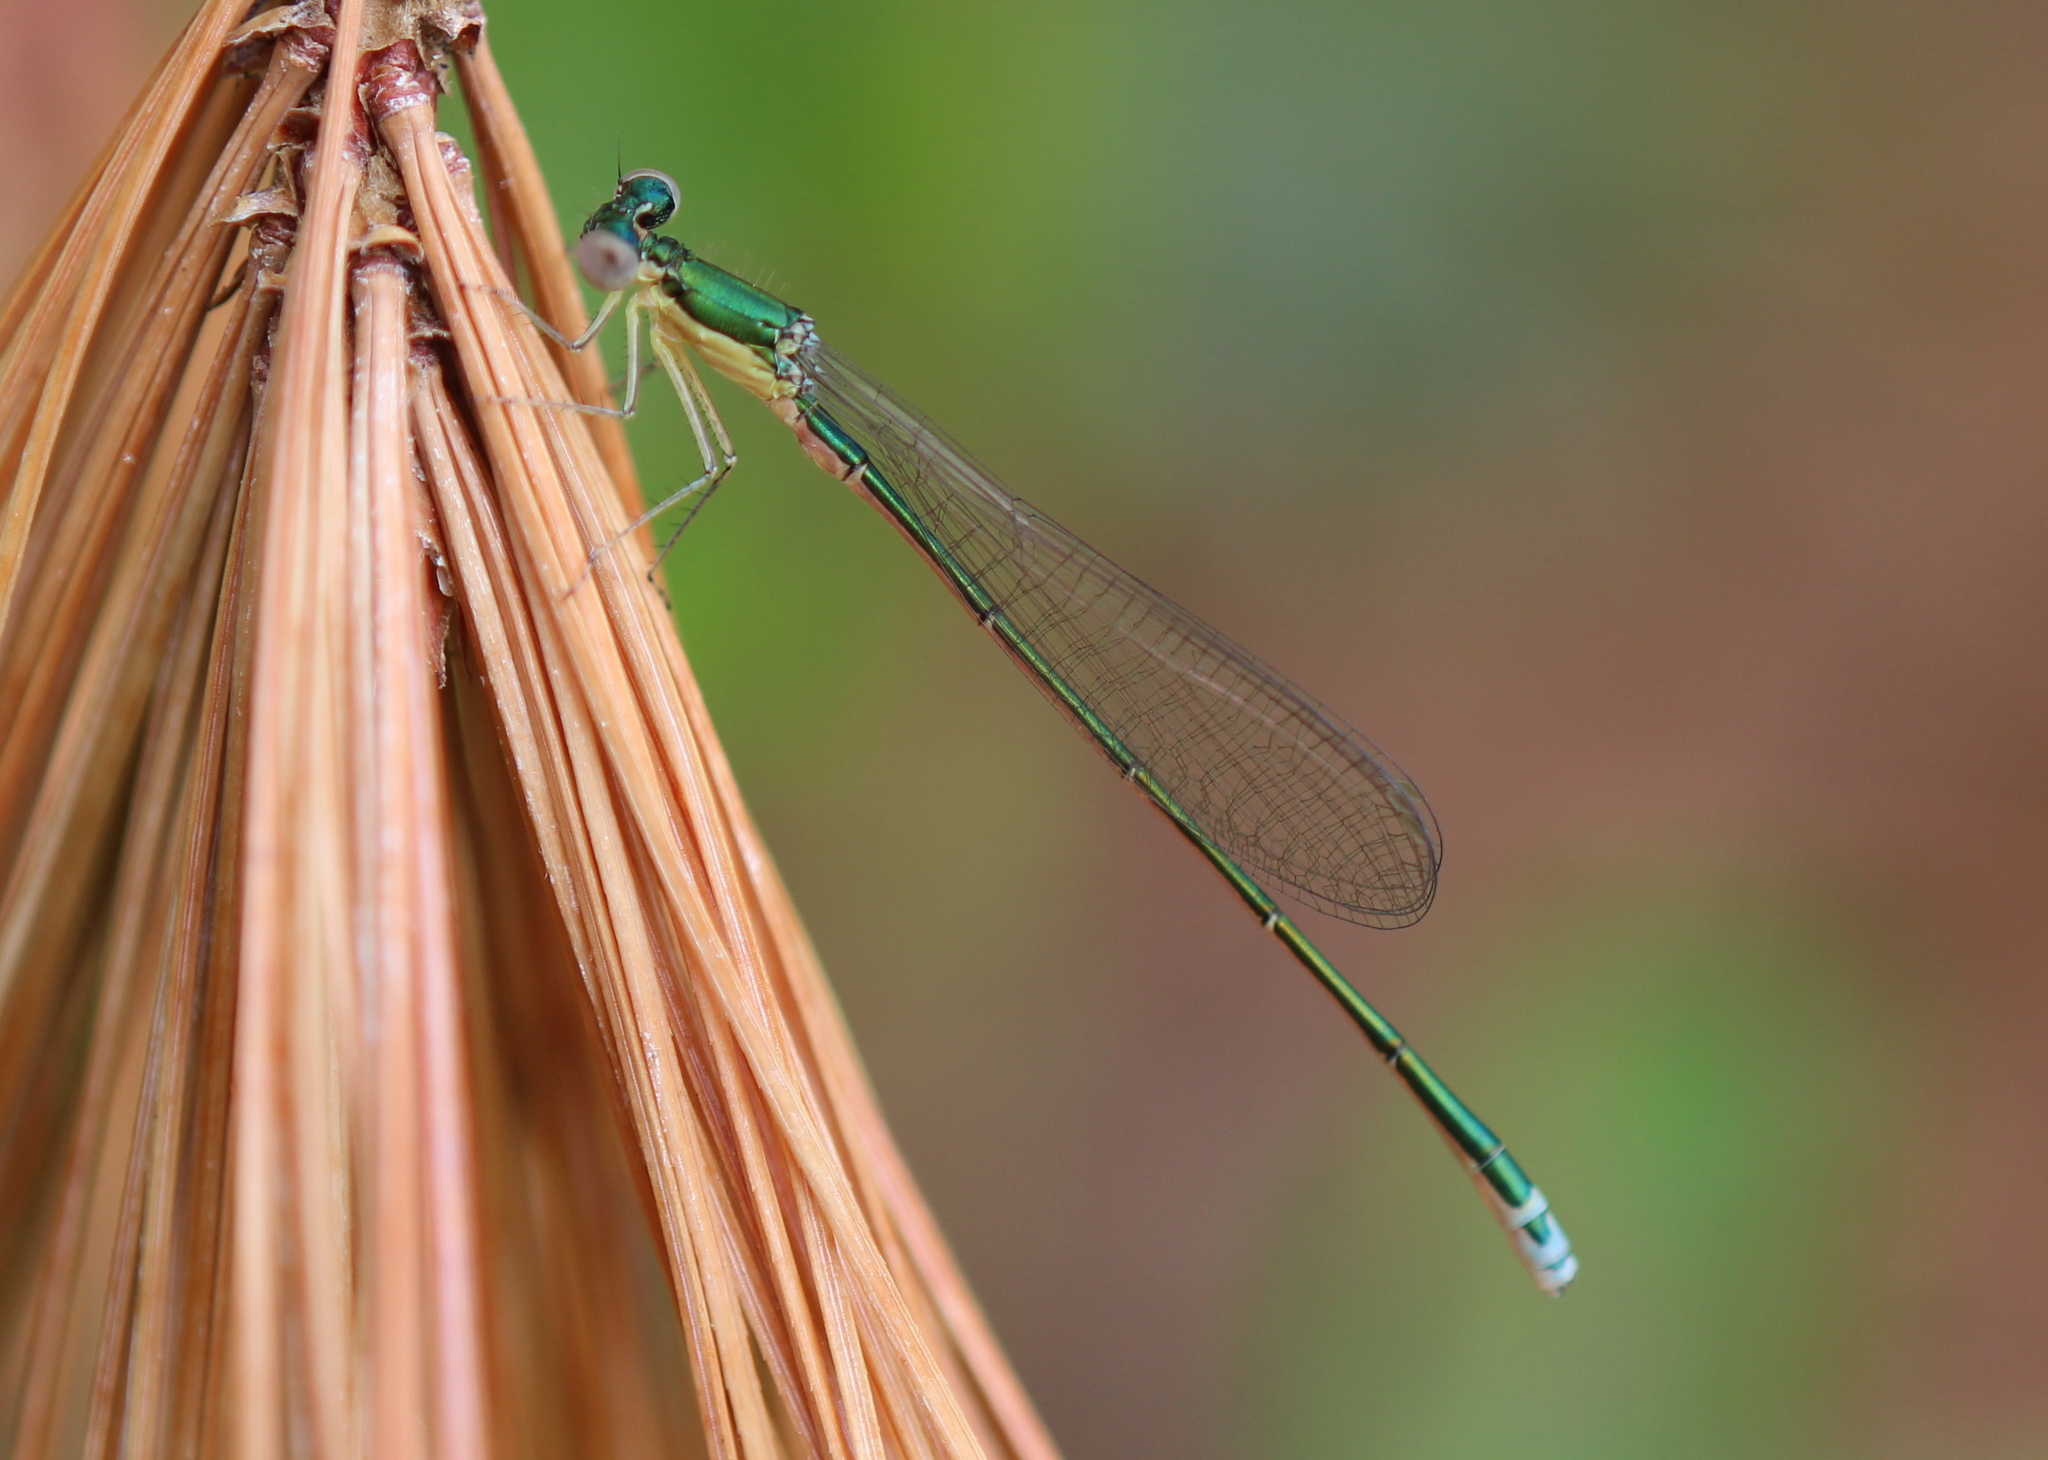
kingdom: Animalia
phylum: Arthropoda
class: Insecta
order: Odonata
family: Coenagrionidae
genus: Nehalennia
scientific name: Nehalennia irene
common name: Sedge sprite
